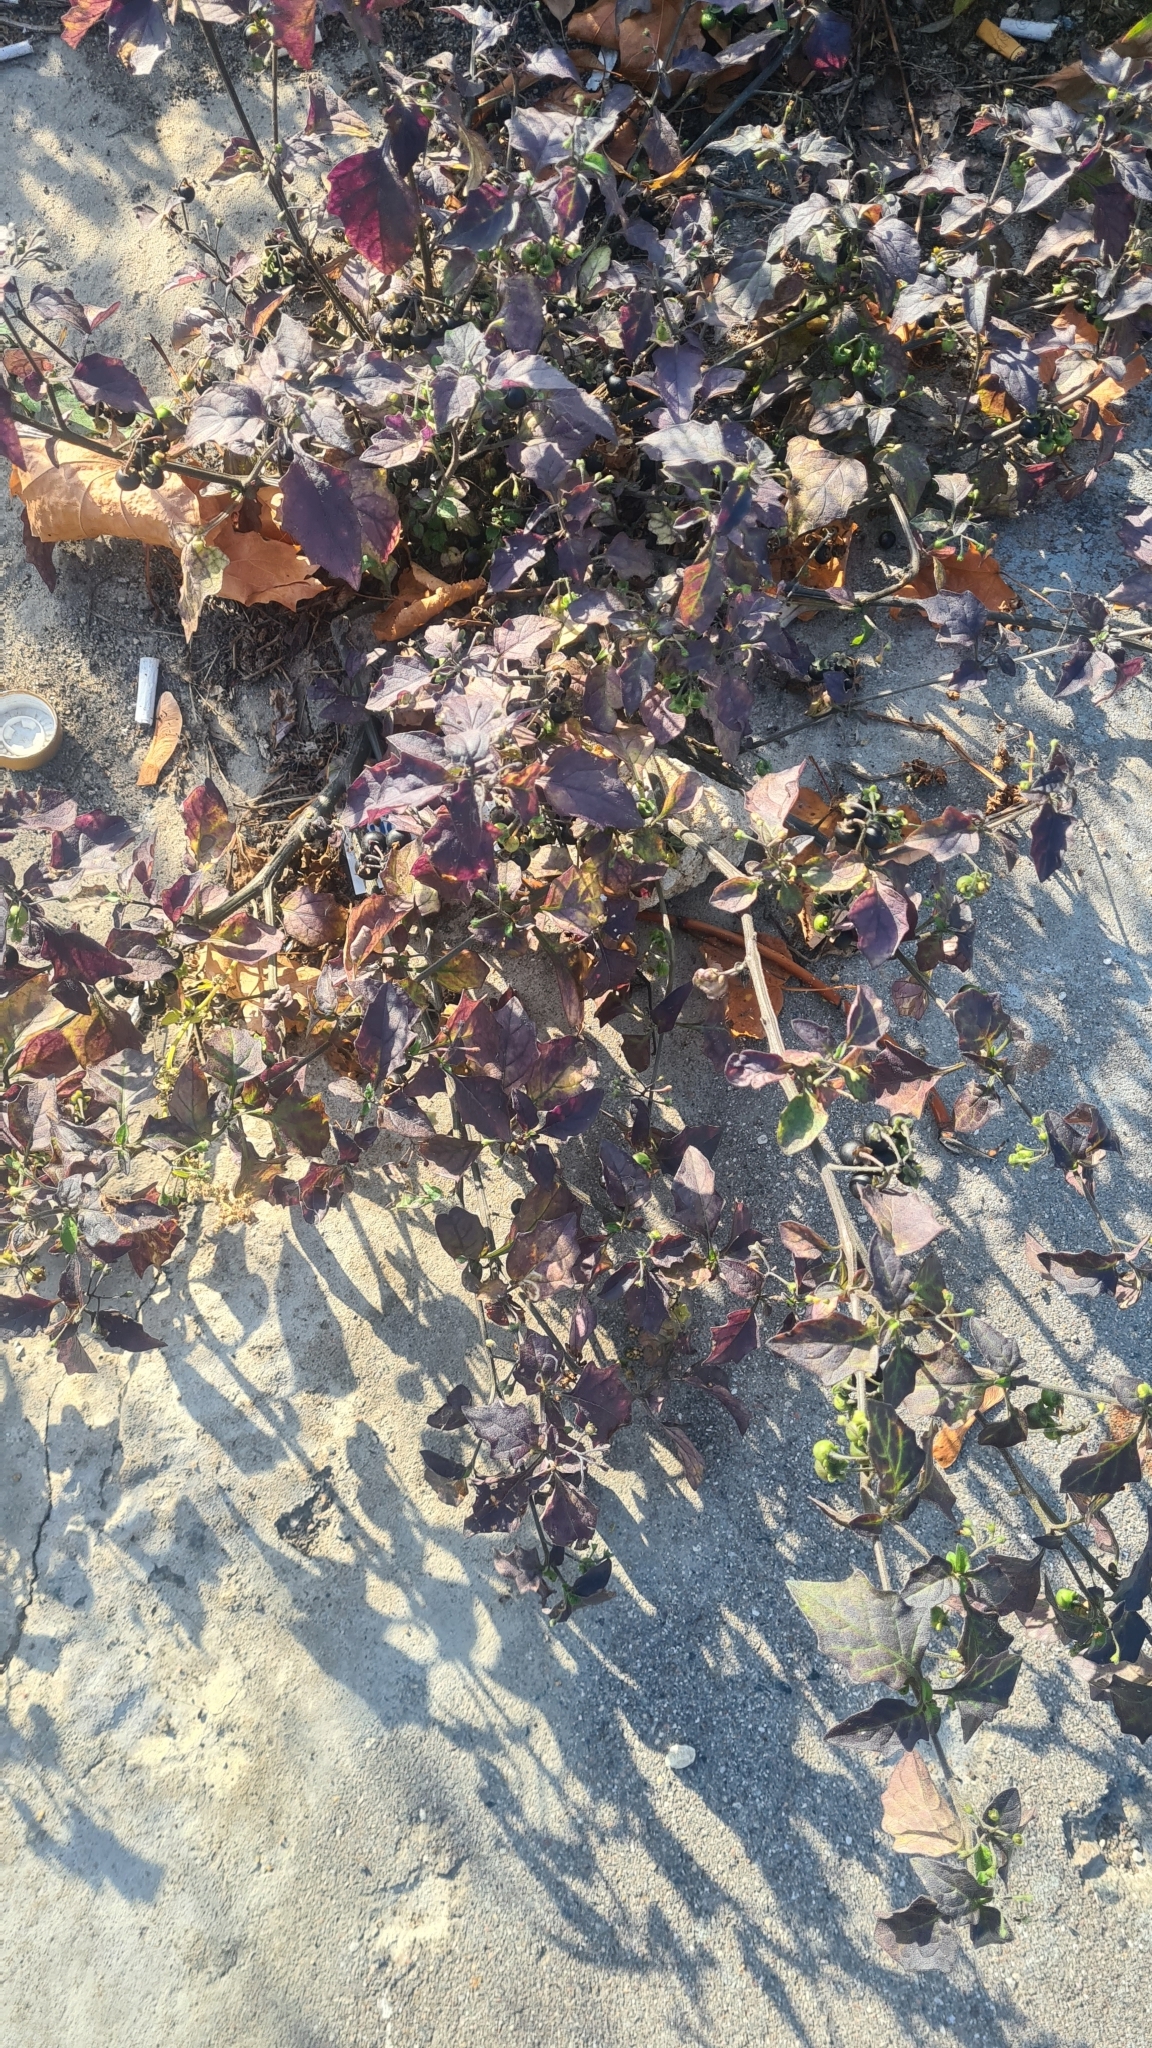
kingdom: Plantae
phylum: Tracheophyta
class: Magnoliopsida
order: Solanales
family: Solanaceae
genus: Solanum
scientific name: Solanum nigrum
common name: Black nightshade
